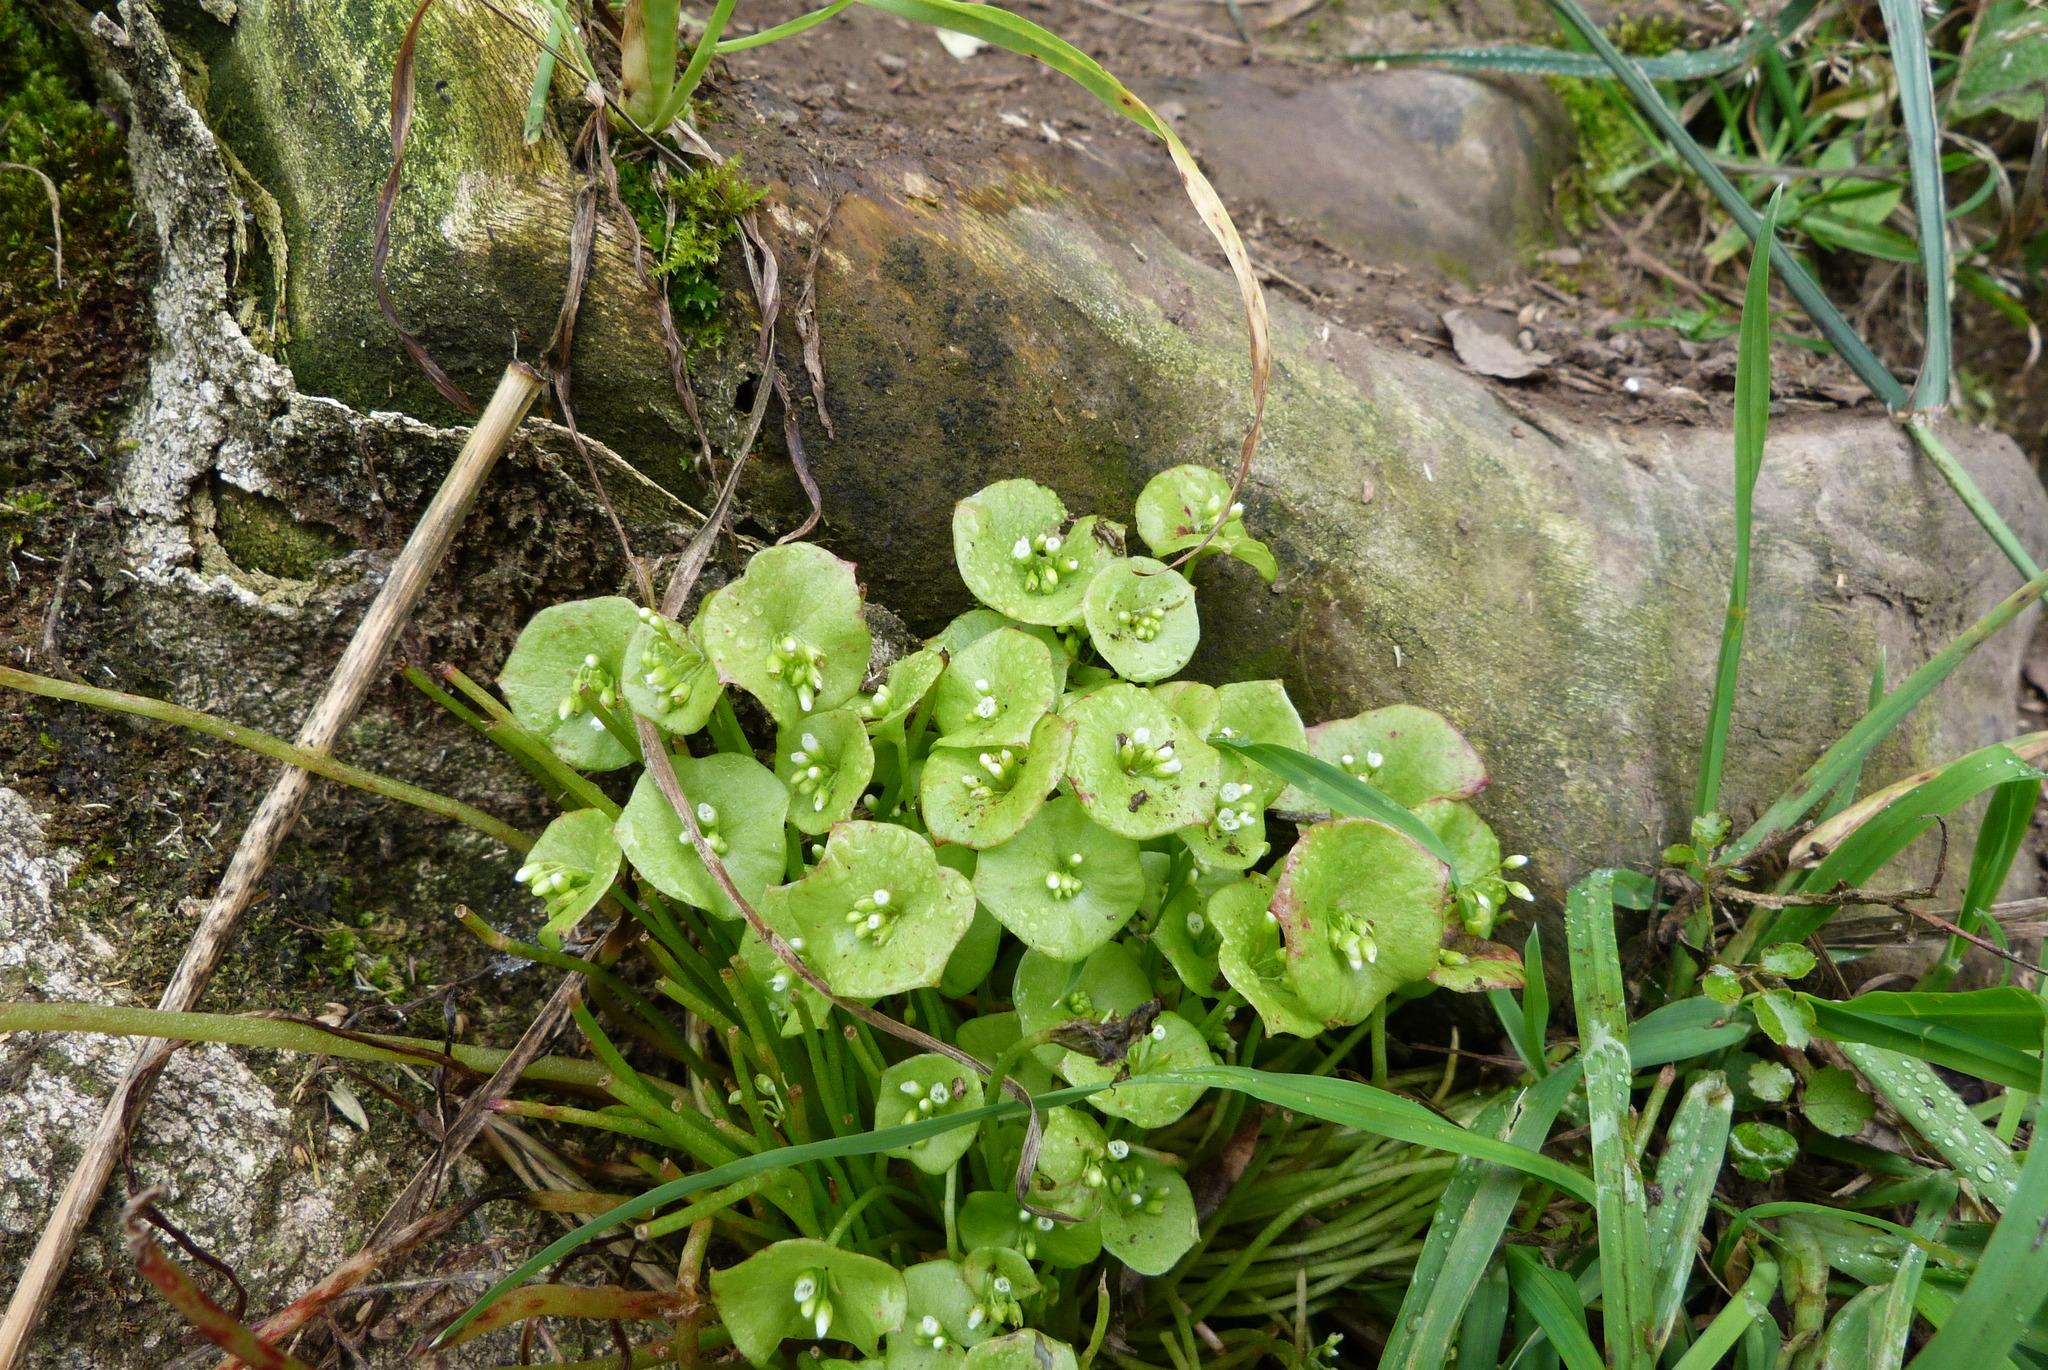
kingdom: Plantae
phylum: Tracheophyta
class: Magnoliopsida
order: Caryophyllales
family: Montiaceae
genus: Claytonia
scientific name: Claytonia perfoliata
